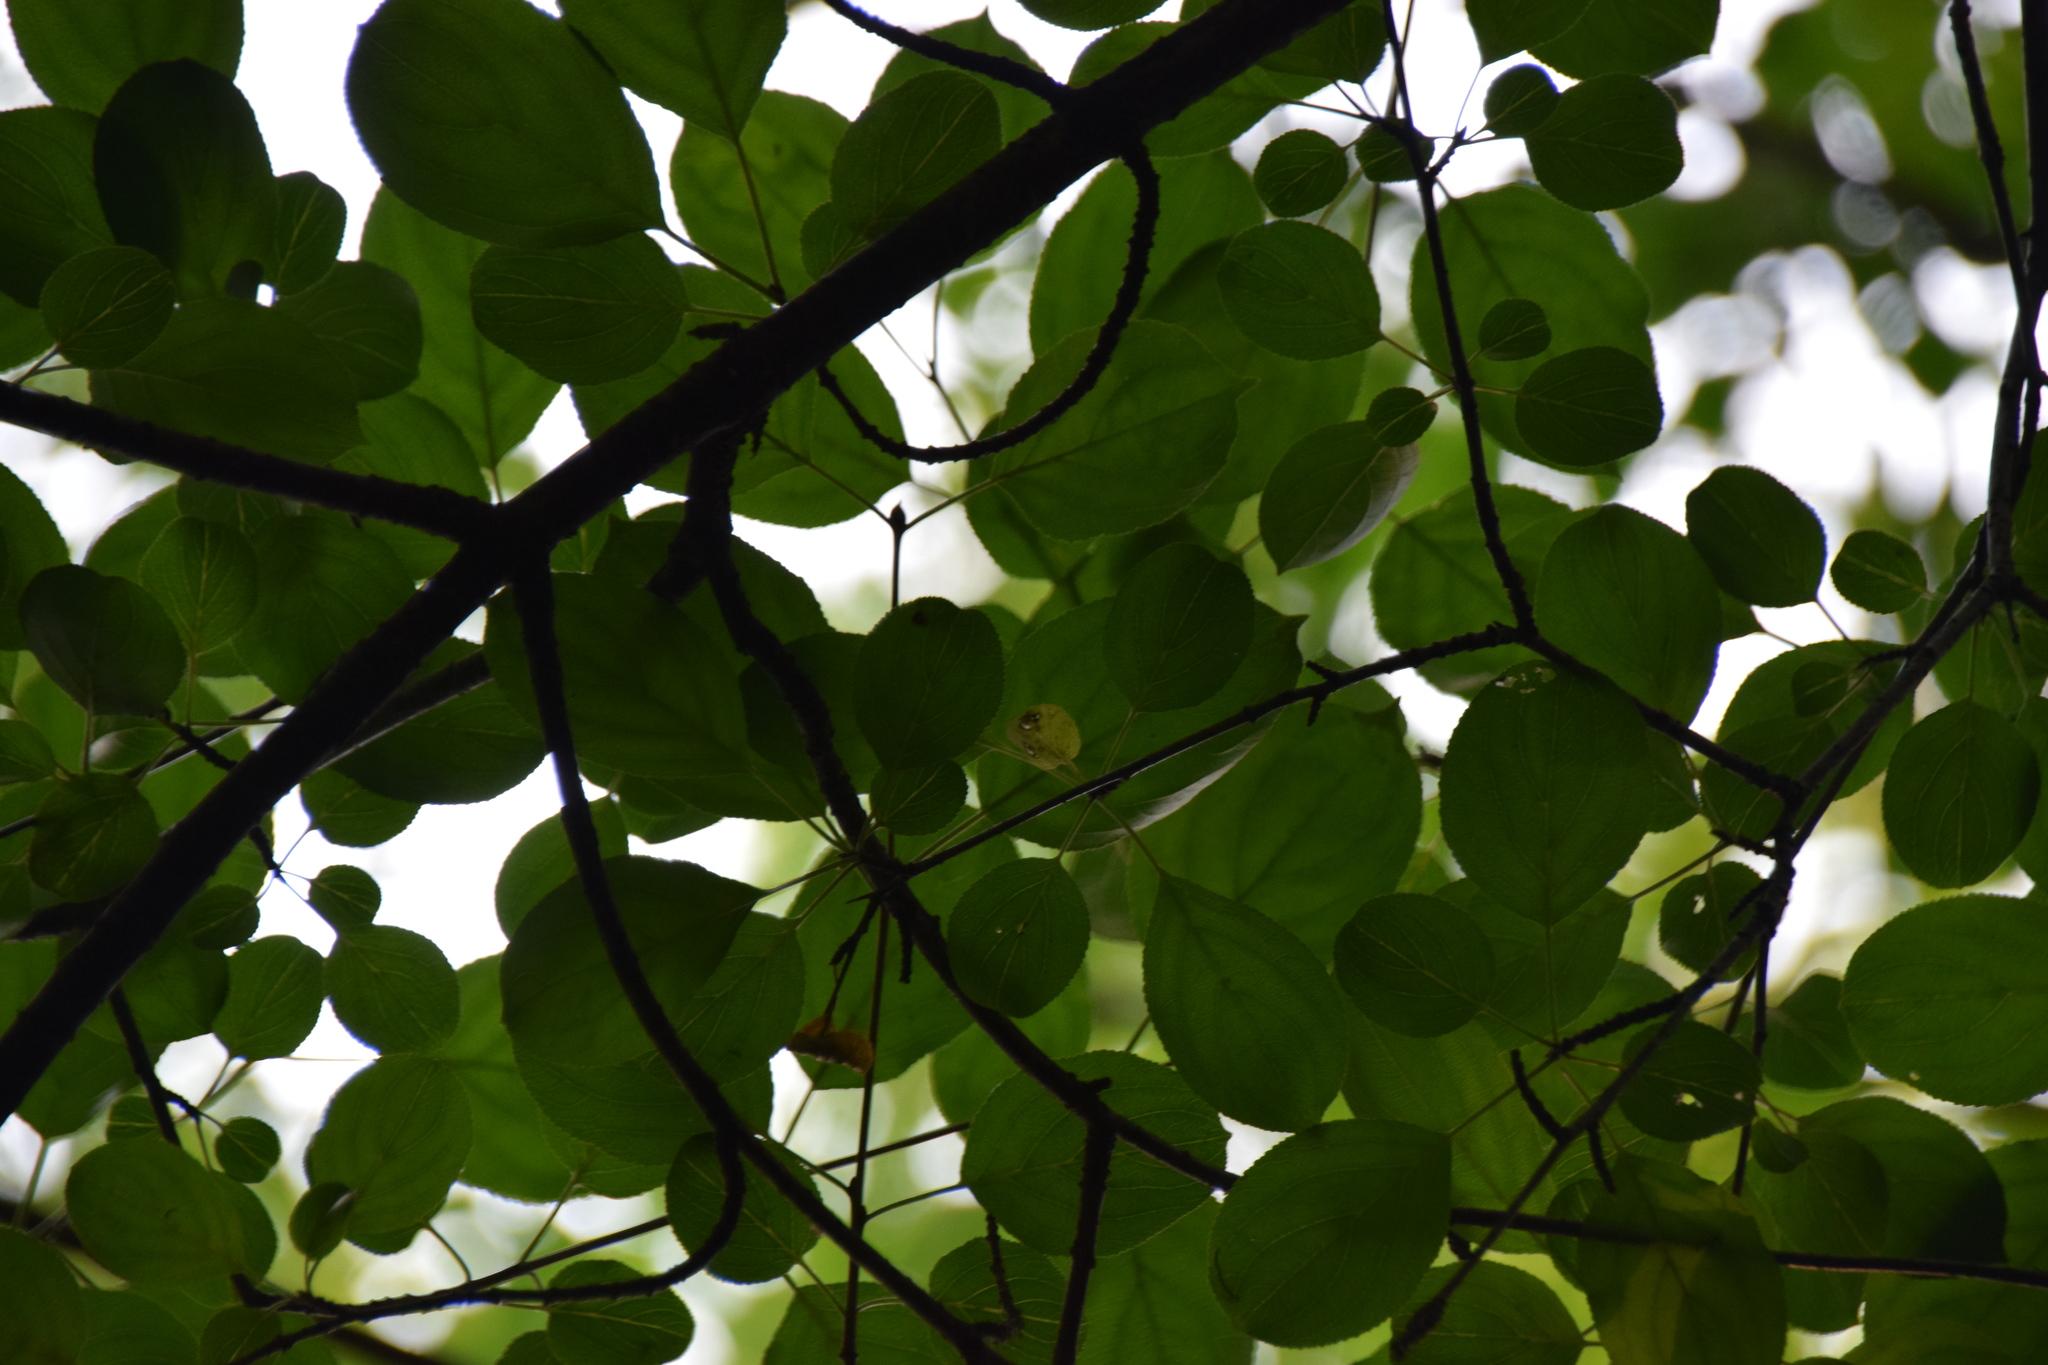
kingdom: Plantae
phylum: Tracheophyta
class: Magnoliopsida
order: Rosales
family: Rhamnaceae
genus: Rhamnus
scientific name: Rhamnus cathartica
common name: Common buckthorn
